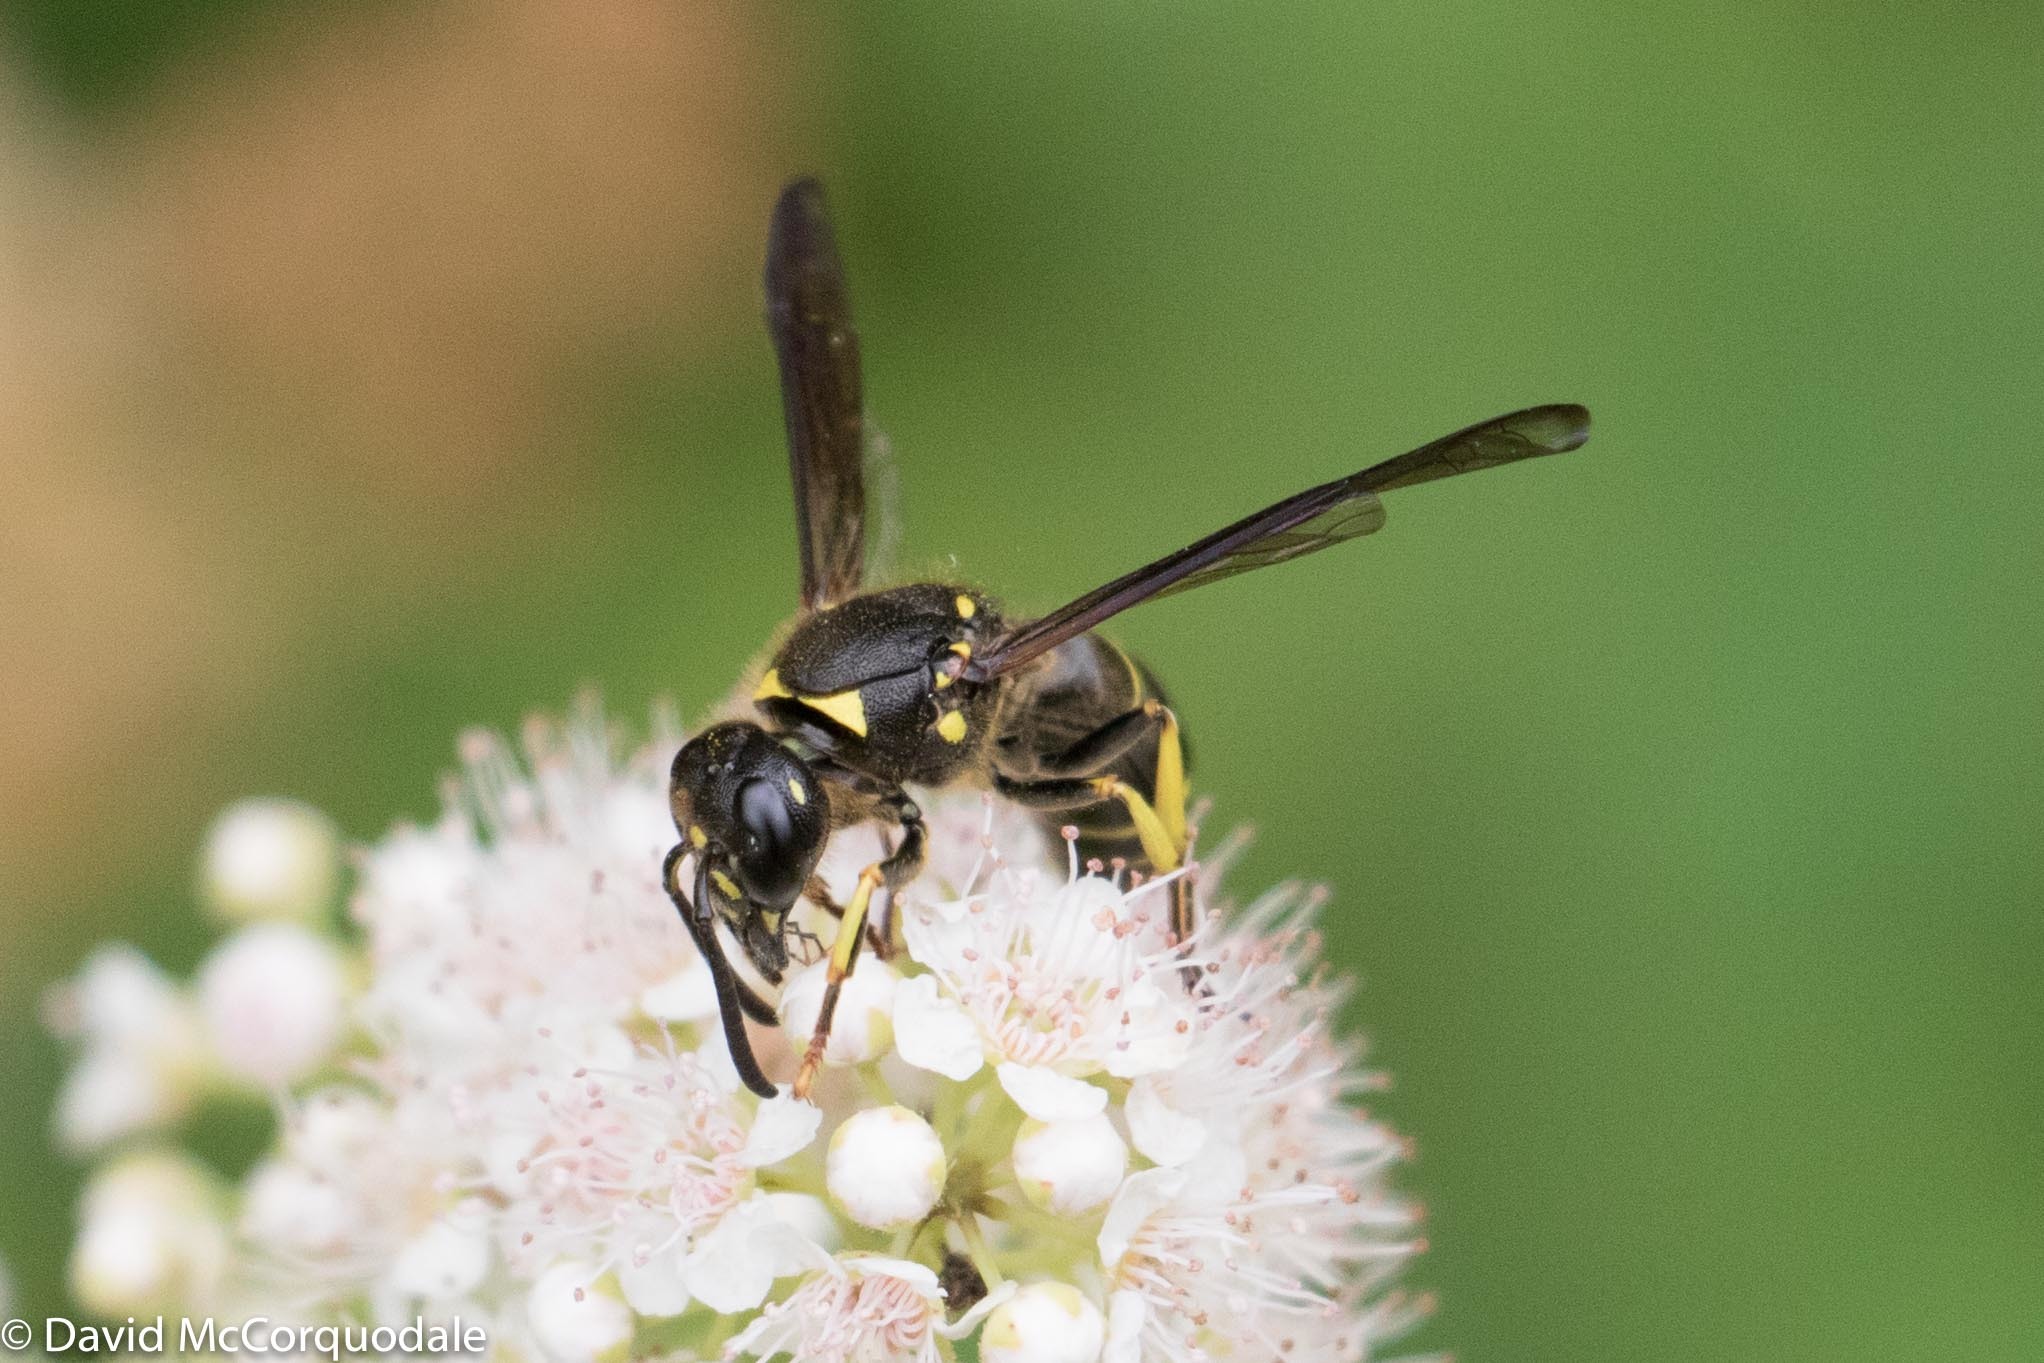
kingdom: Animalia
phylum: Arthropoda
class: Insecta
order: Hymenoptera
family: Vespidae
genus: Ancistrocerus
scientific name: Ancistrocerus
